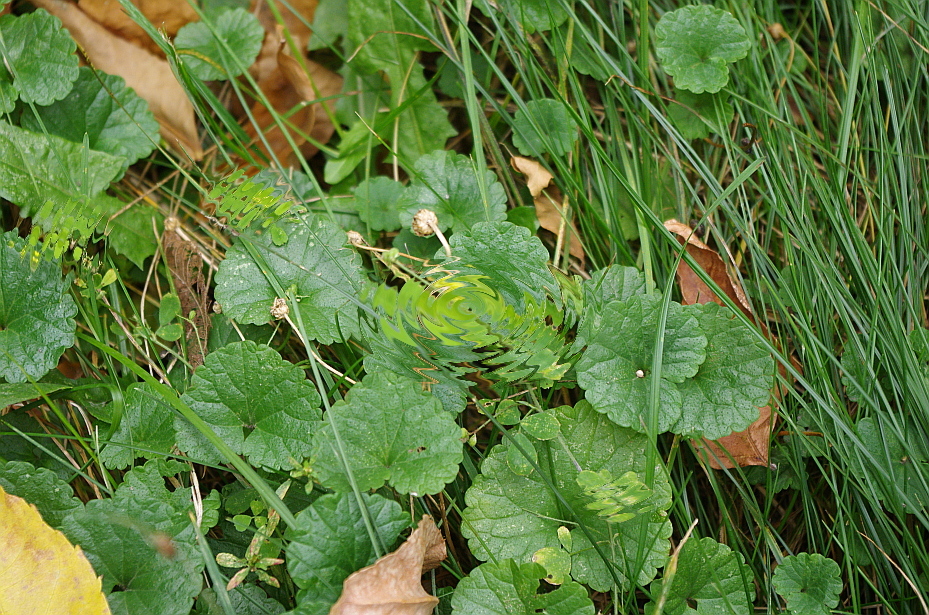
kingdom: Plantae
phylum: Tracheophyta
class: Magnoliopsida
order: Lamiales
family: Lamiaceae
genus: Glechoma
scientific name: Glechoma hederacea
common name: Ground ivy
